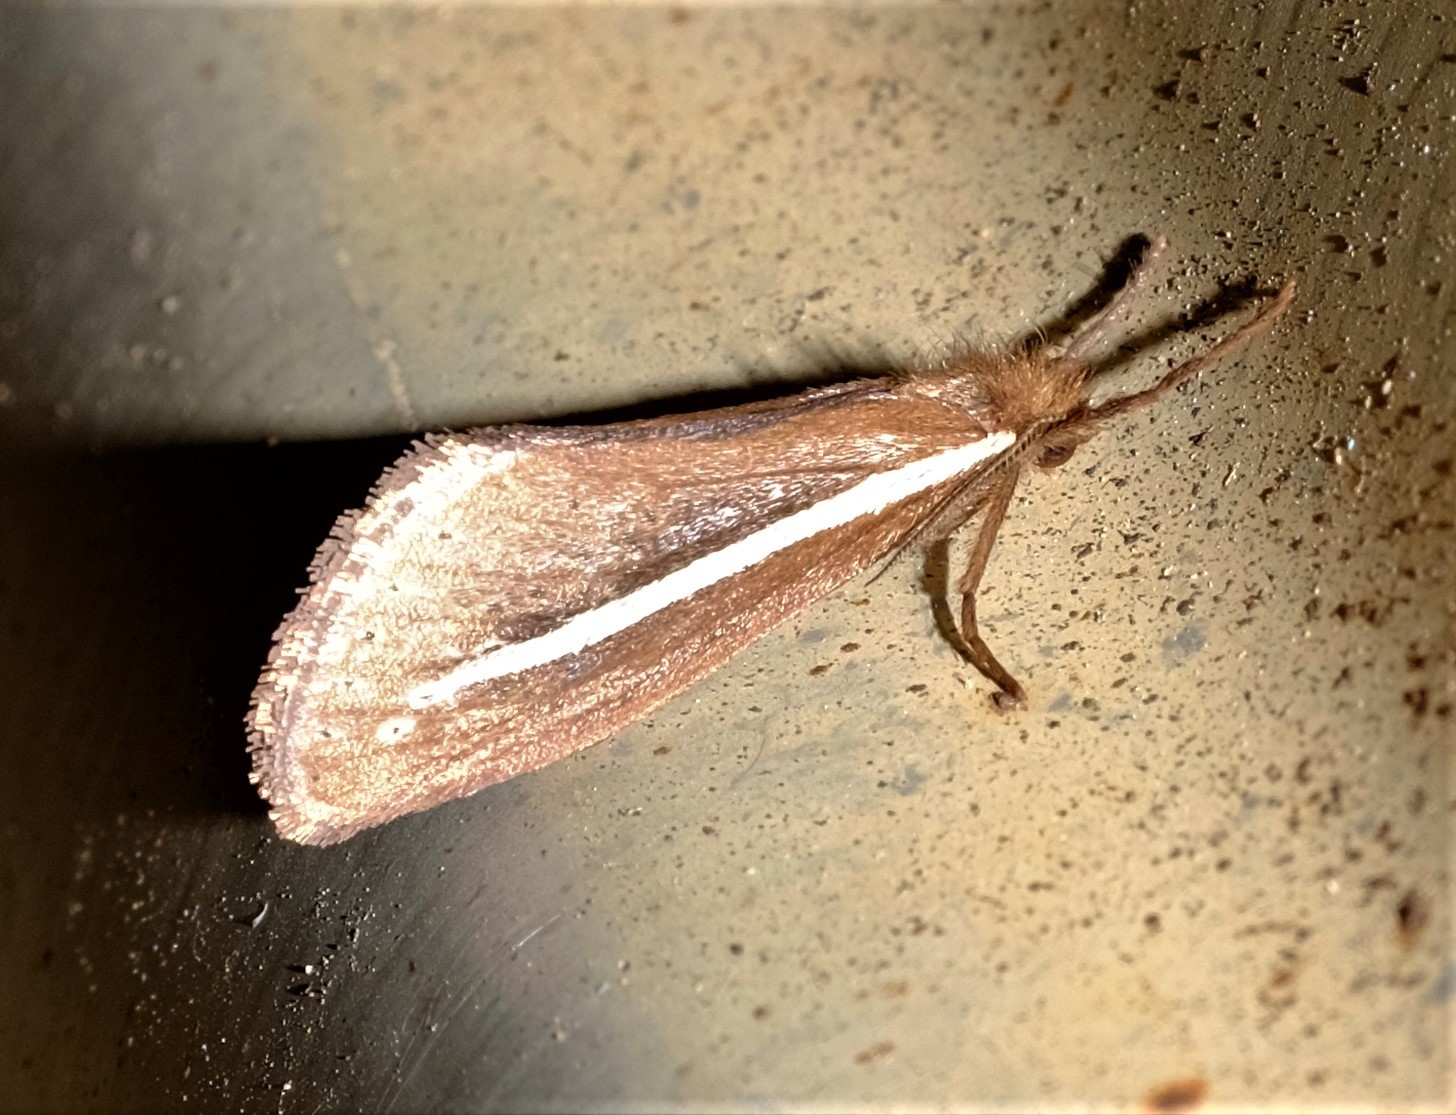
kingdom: Animalia
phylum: Arthropoda
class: Insecta
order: Lepidoptera
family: Hepialidae
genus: Fraus
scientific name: Fraus pteromela
